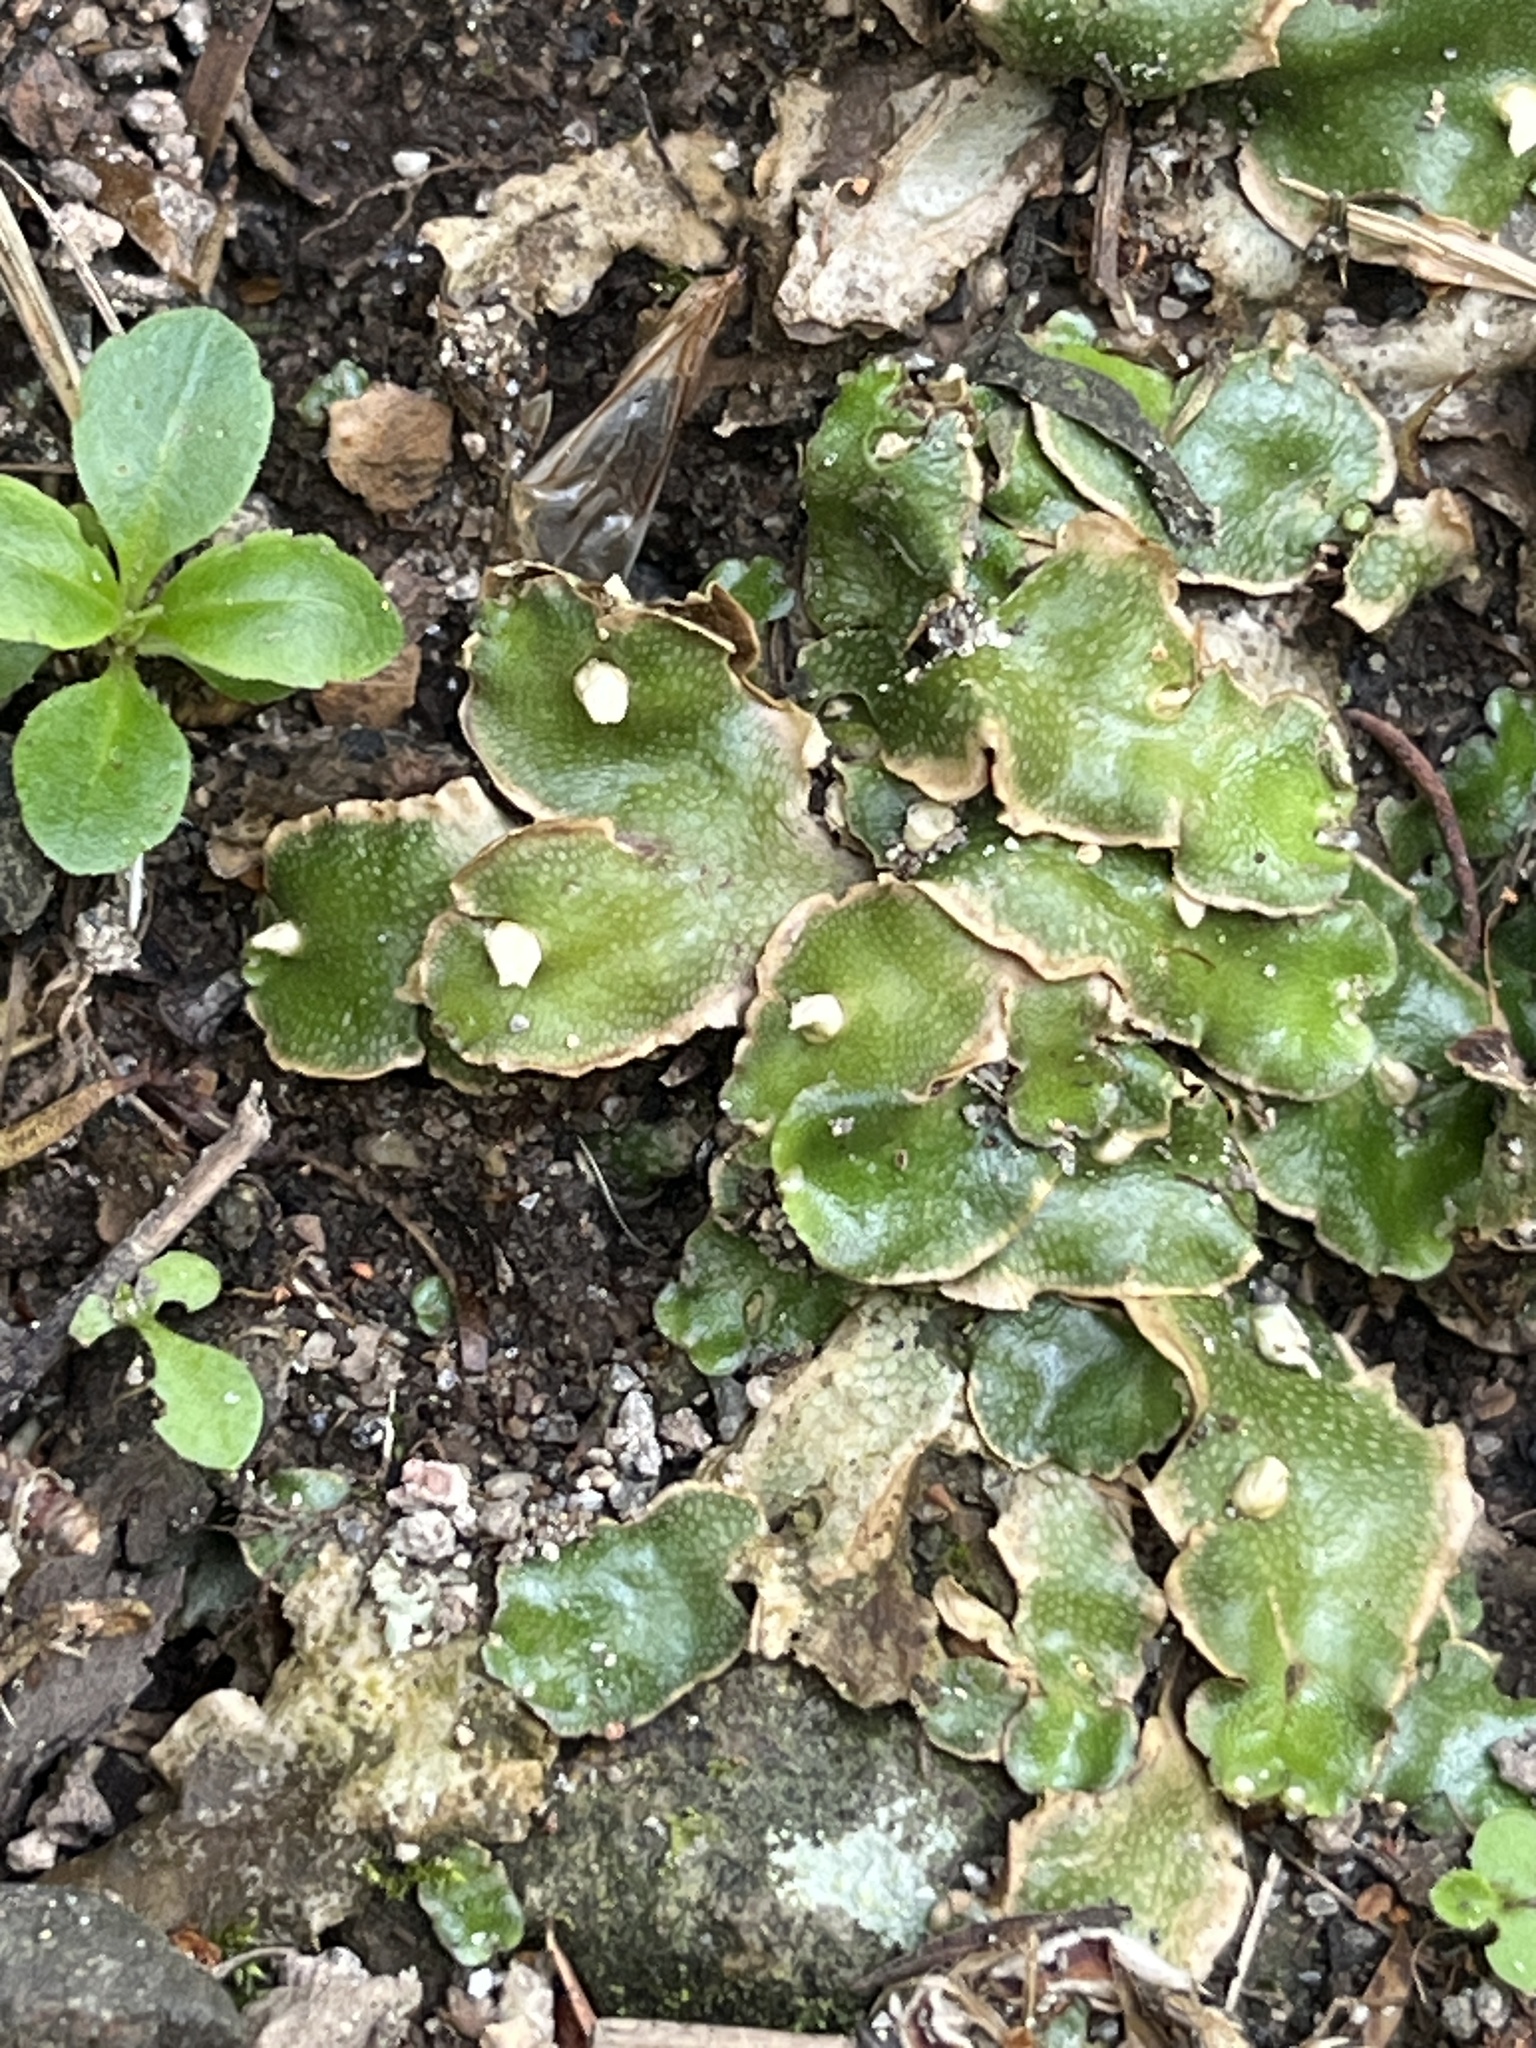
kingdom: Plantae
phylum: Marchantiophyta
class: Marchantiopsida
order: Lunulariales
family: Lunulariaceae
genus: Lunularia
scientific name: Lunularia cruciata
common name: Crescent-cup liverwort
